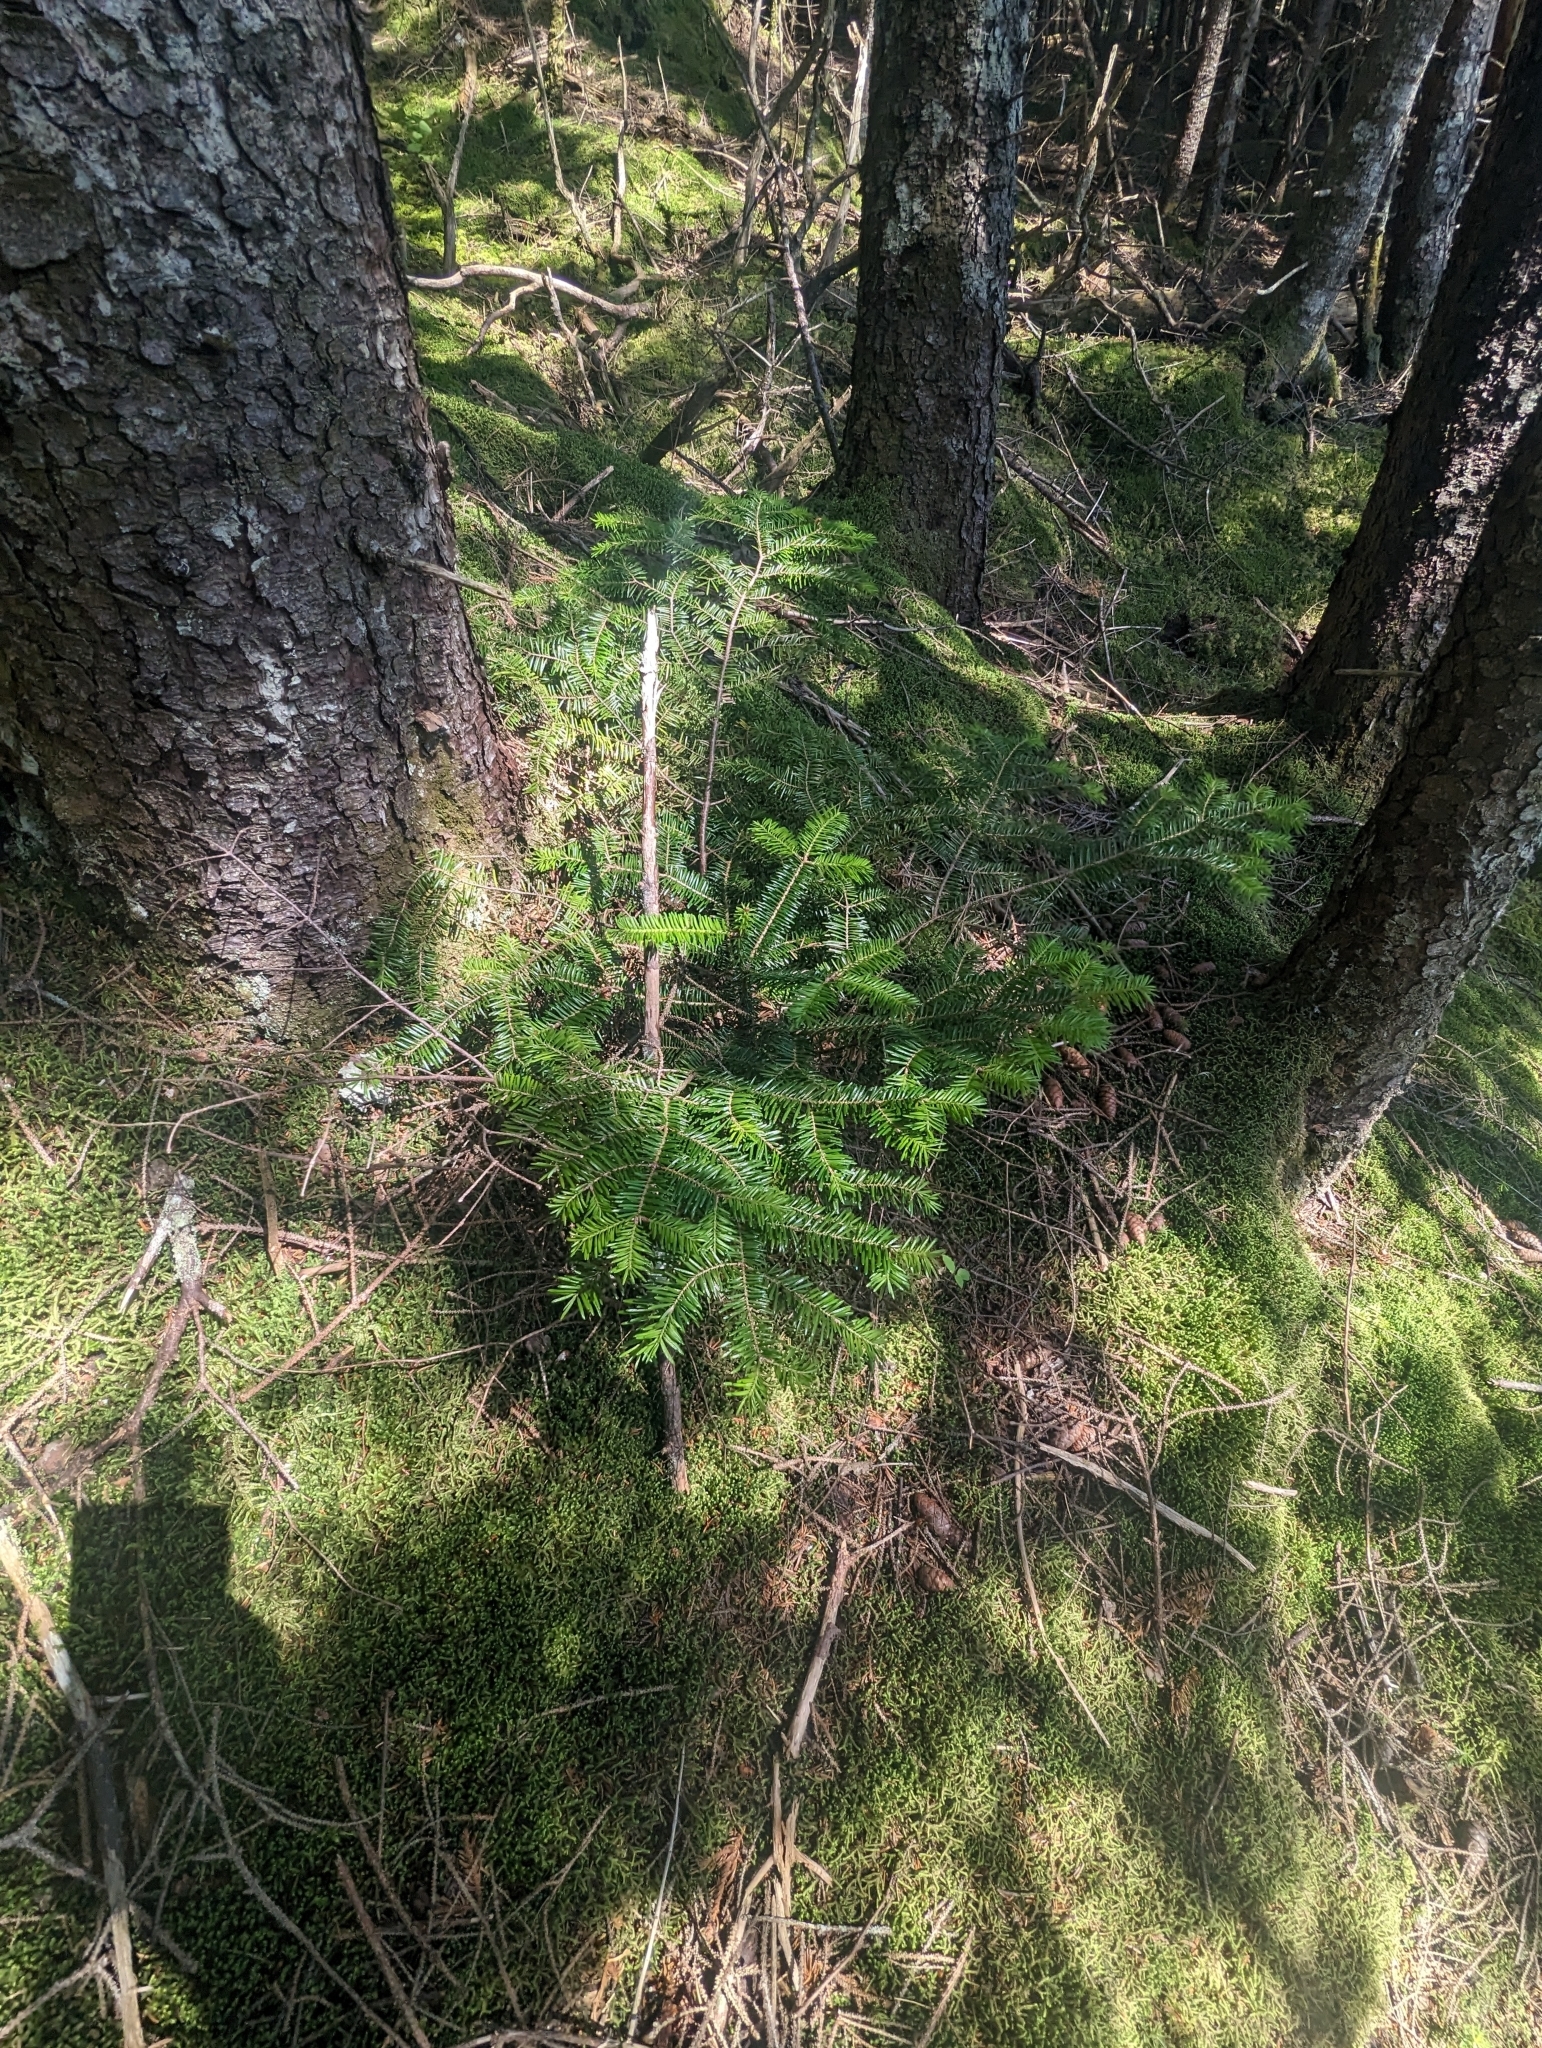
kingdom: Plantae
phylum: Tracheophyta
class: Pinopsida
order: Pinales
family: Pinaceae
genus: Abies
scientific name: Abies balsamea
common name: Balsam fir
